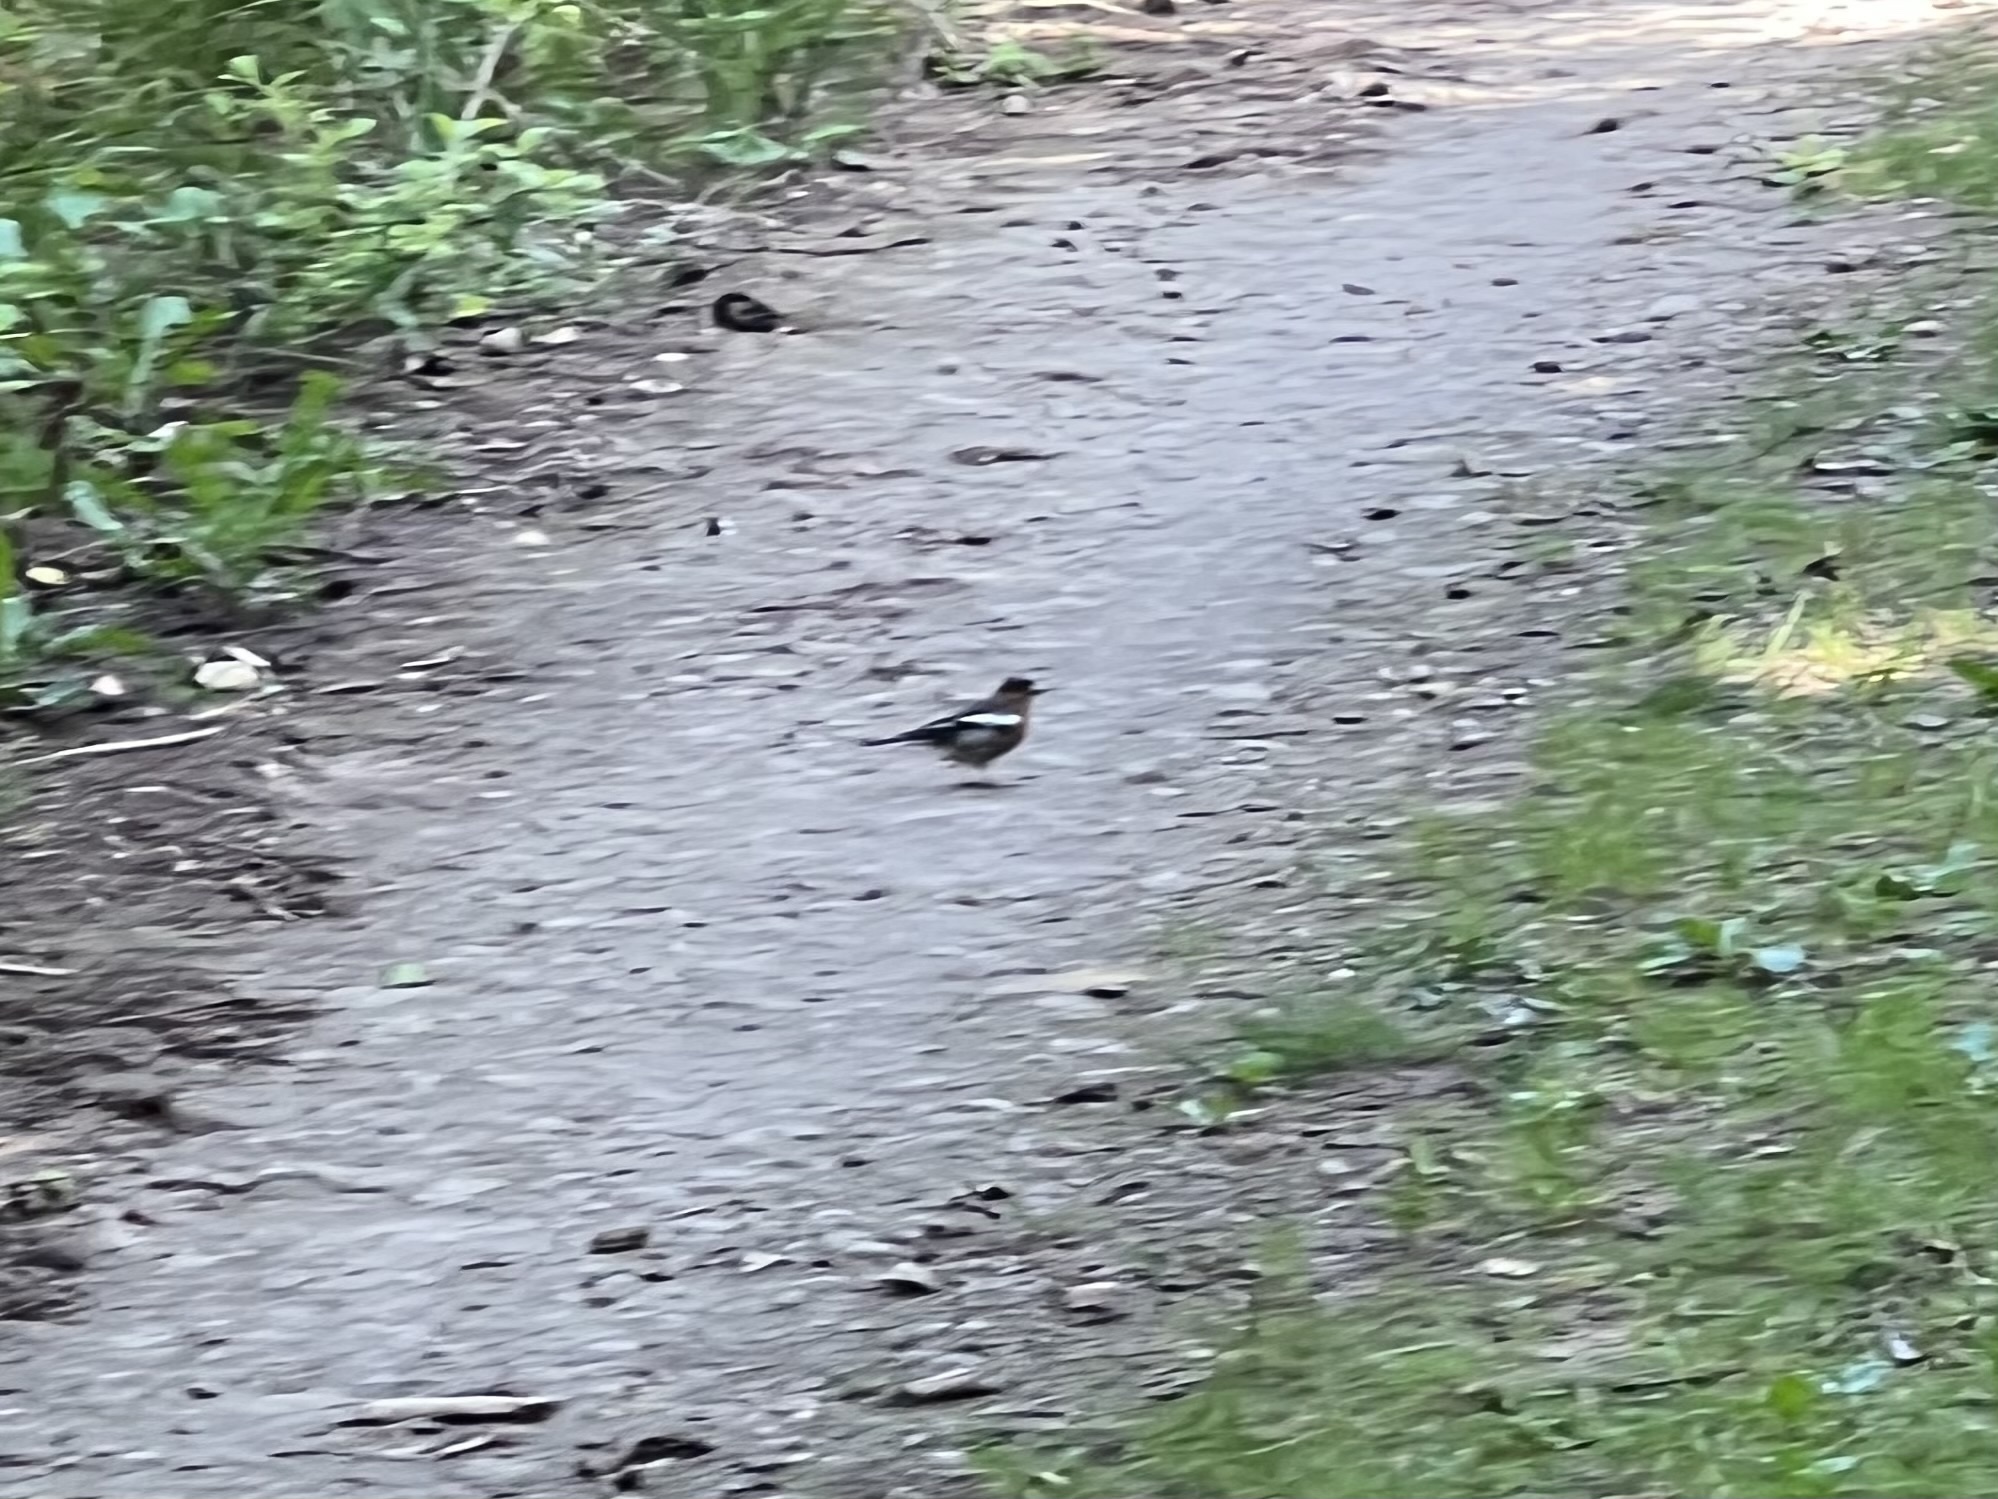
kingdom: Animalia
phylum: Chordata
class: Aves
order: Passeriformes
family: Fringillidae
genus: Fringilla
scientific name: Fringilla coelebs
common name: Common chaffinch
